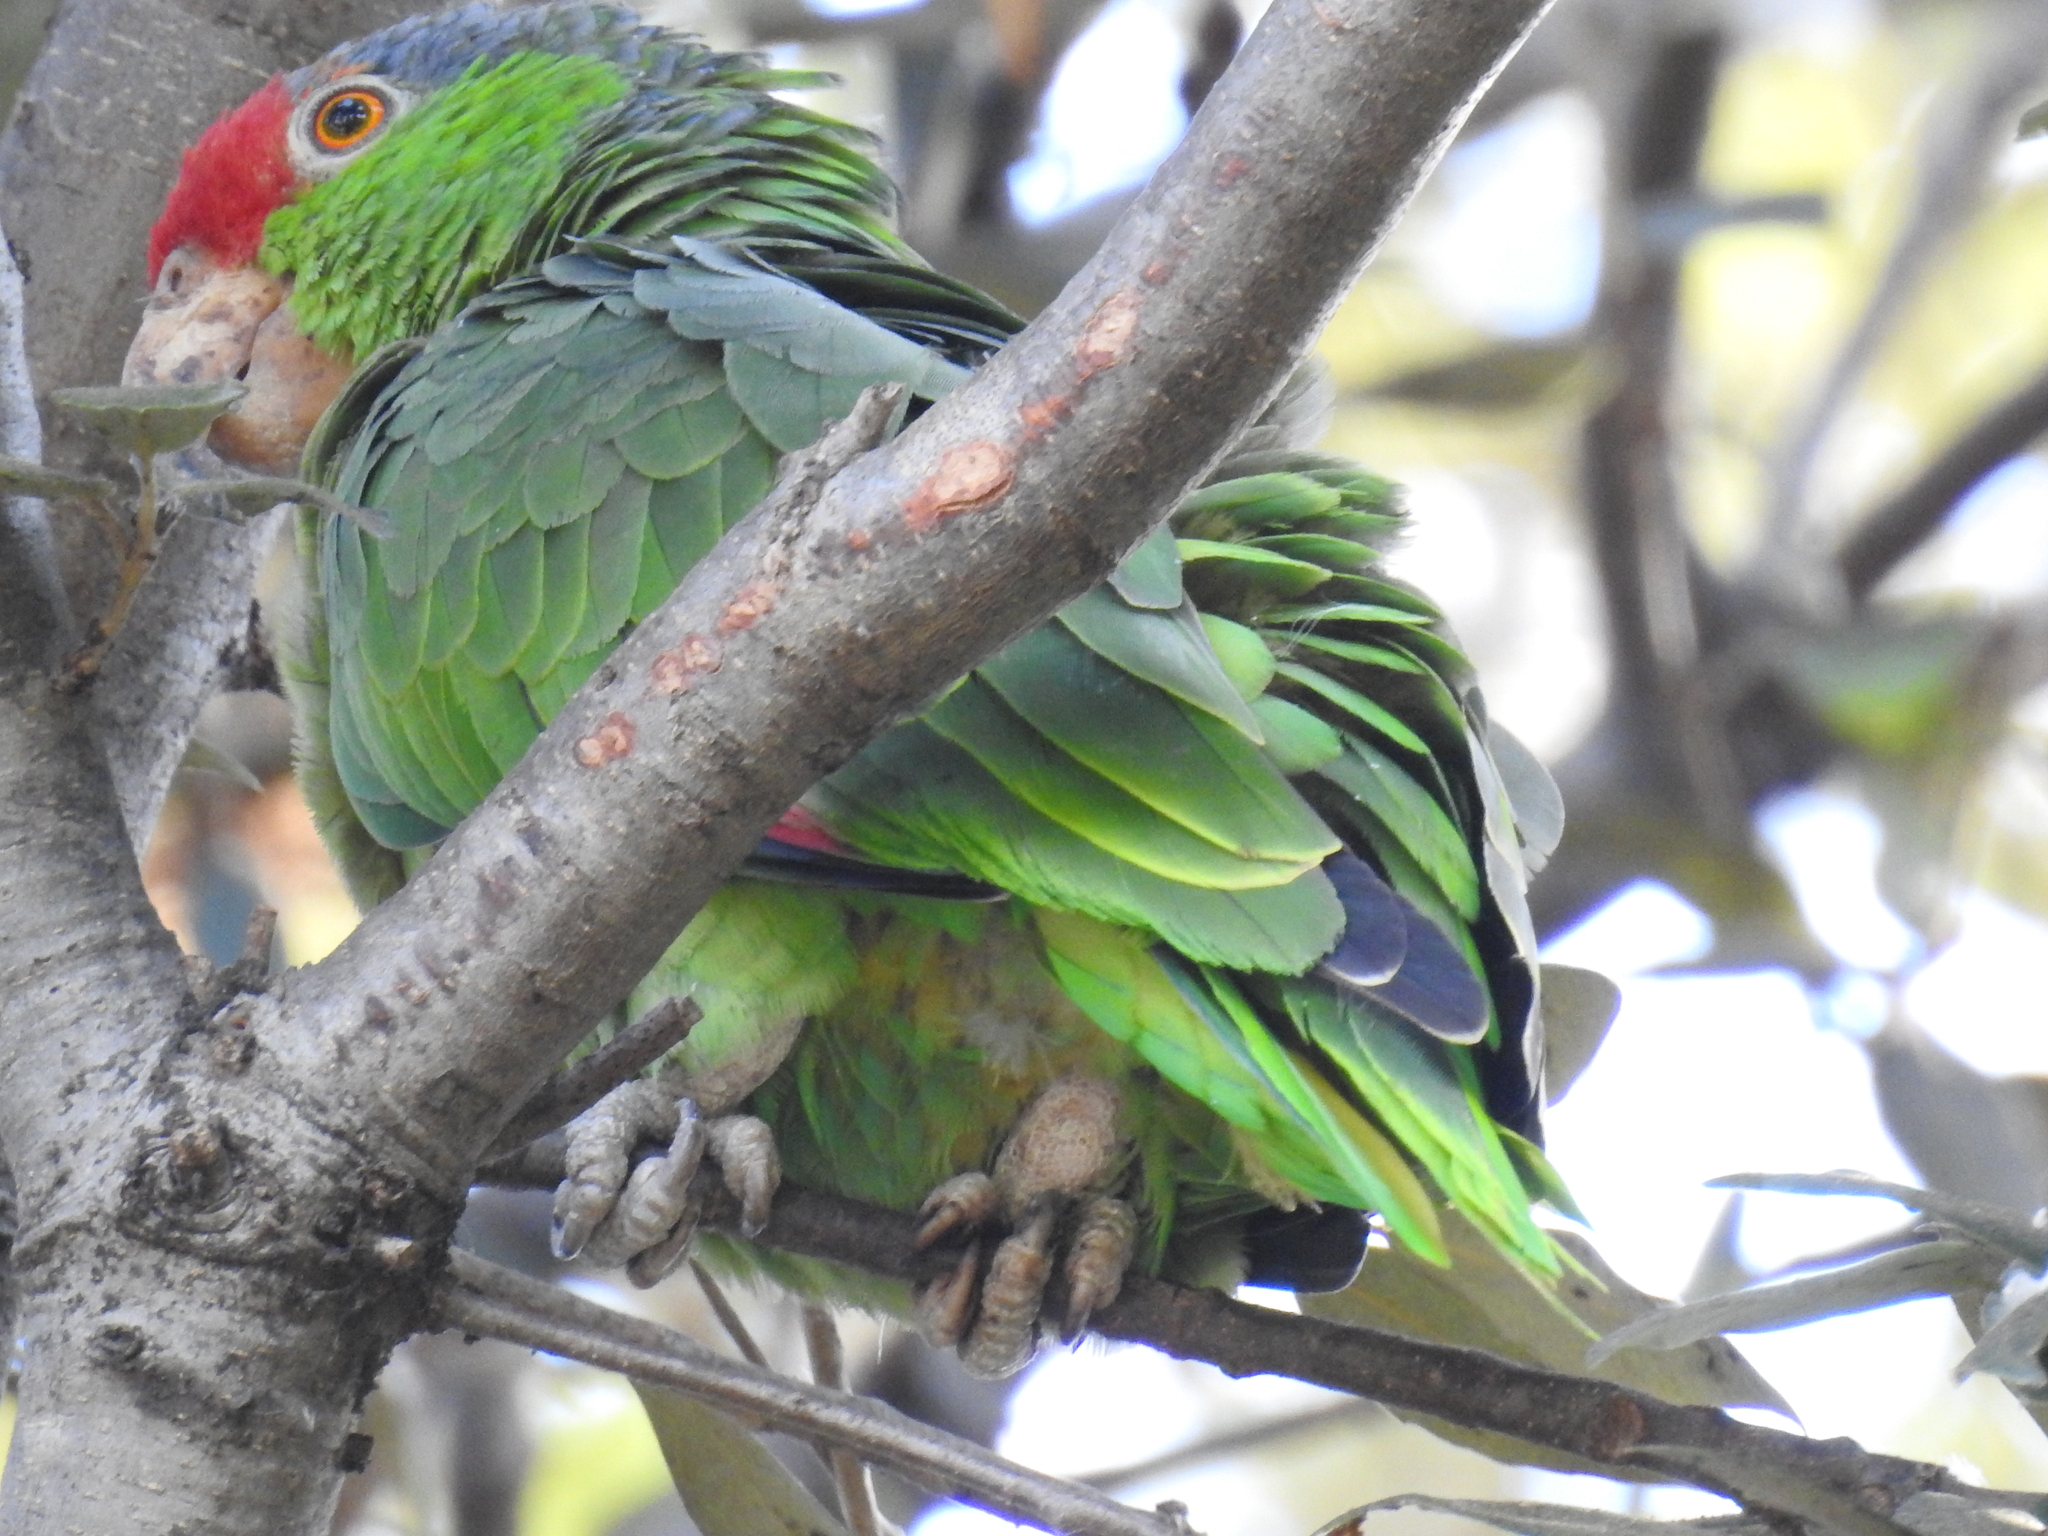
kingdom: Animalia
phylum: Chordata
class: Aves
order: Psittaciformes
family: Psittacidae
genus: Amazona
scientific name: Amazona viridigenalis
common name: Red-crowned amazon
